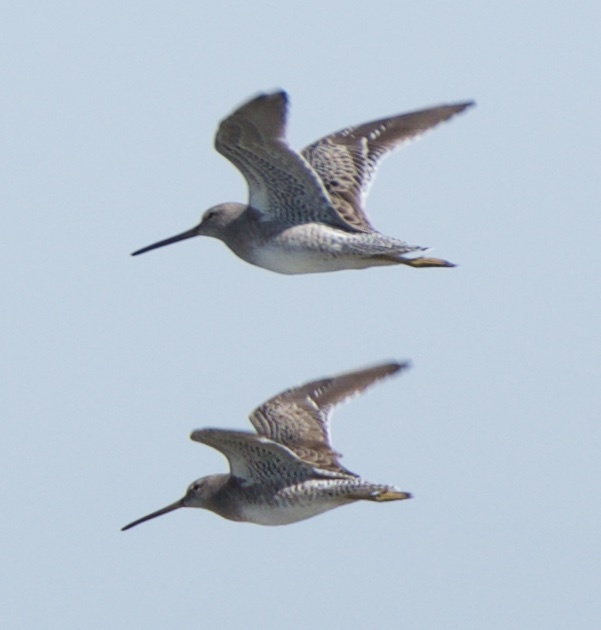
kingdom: Animalia
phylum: Chordata
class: Aves
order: Charadriiformes
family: Scolopacidae
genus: Limnodromus
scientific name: Limnodromus scolopaceus
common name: Long-billed dowitcher
